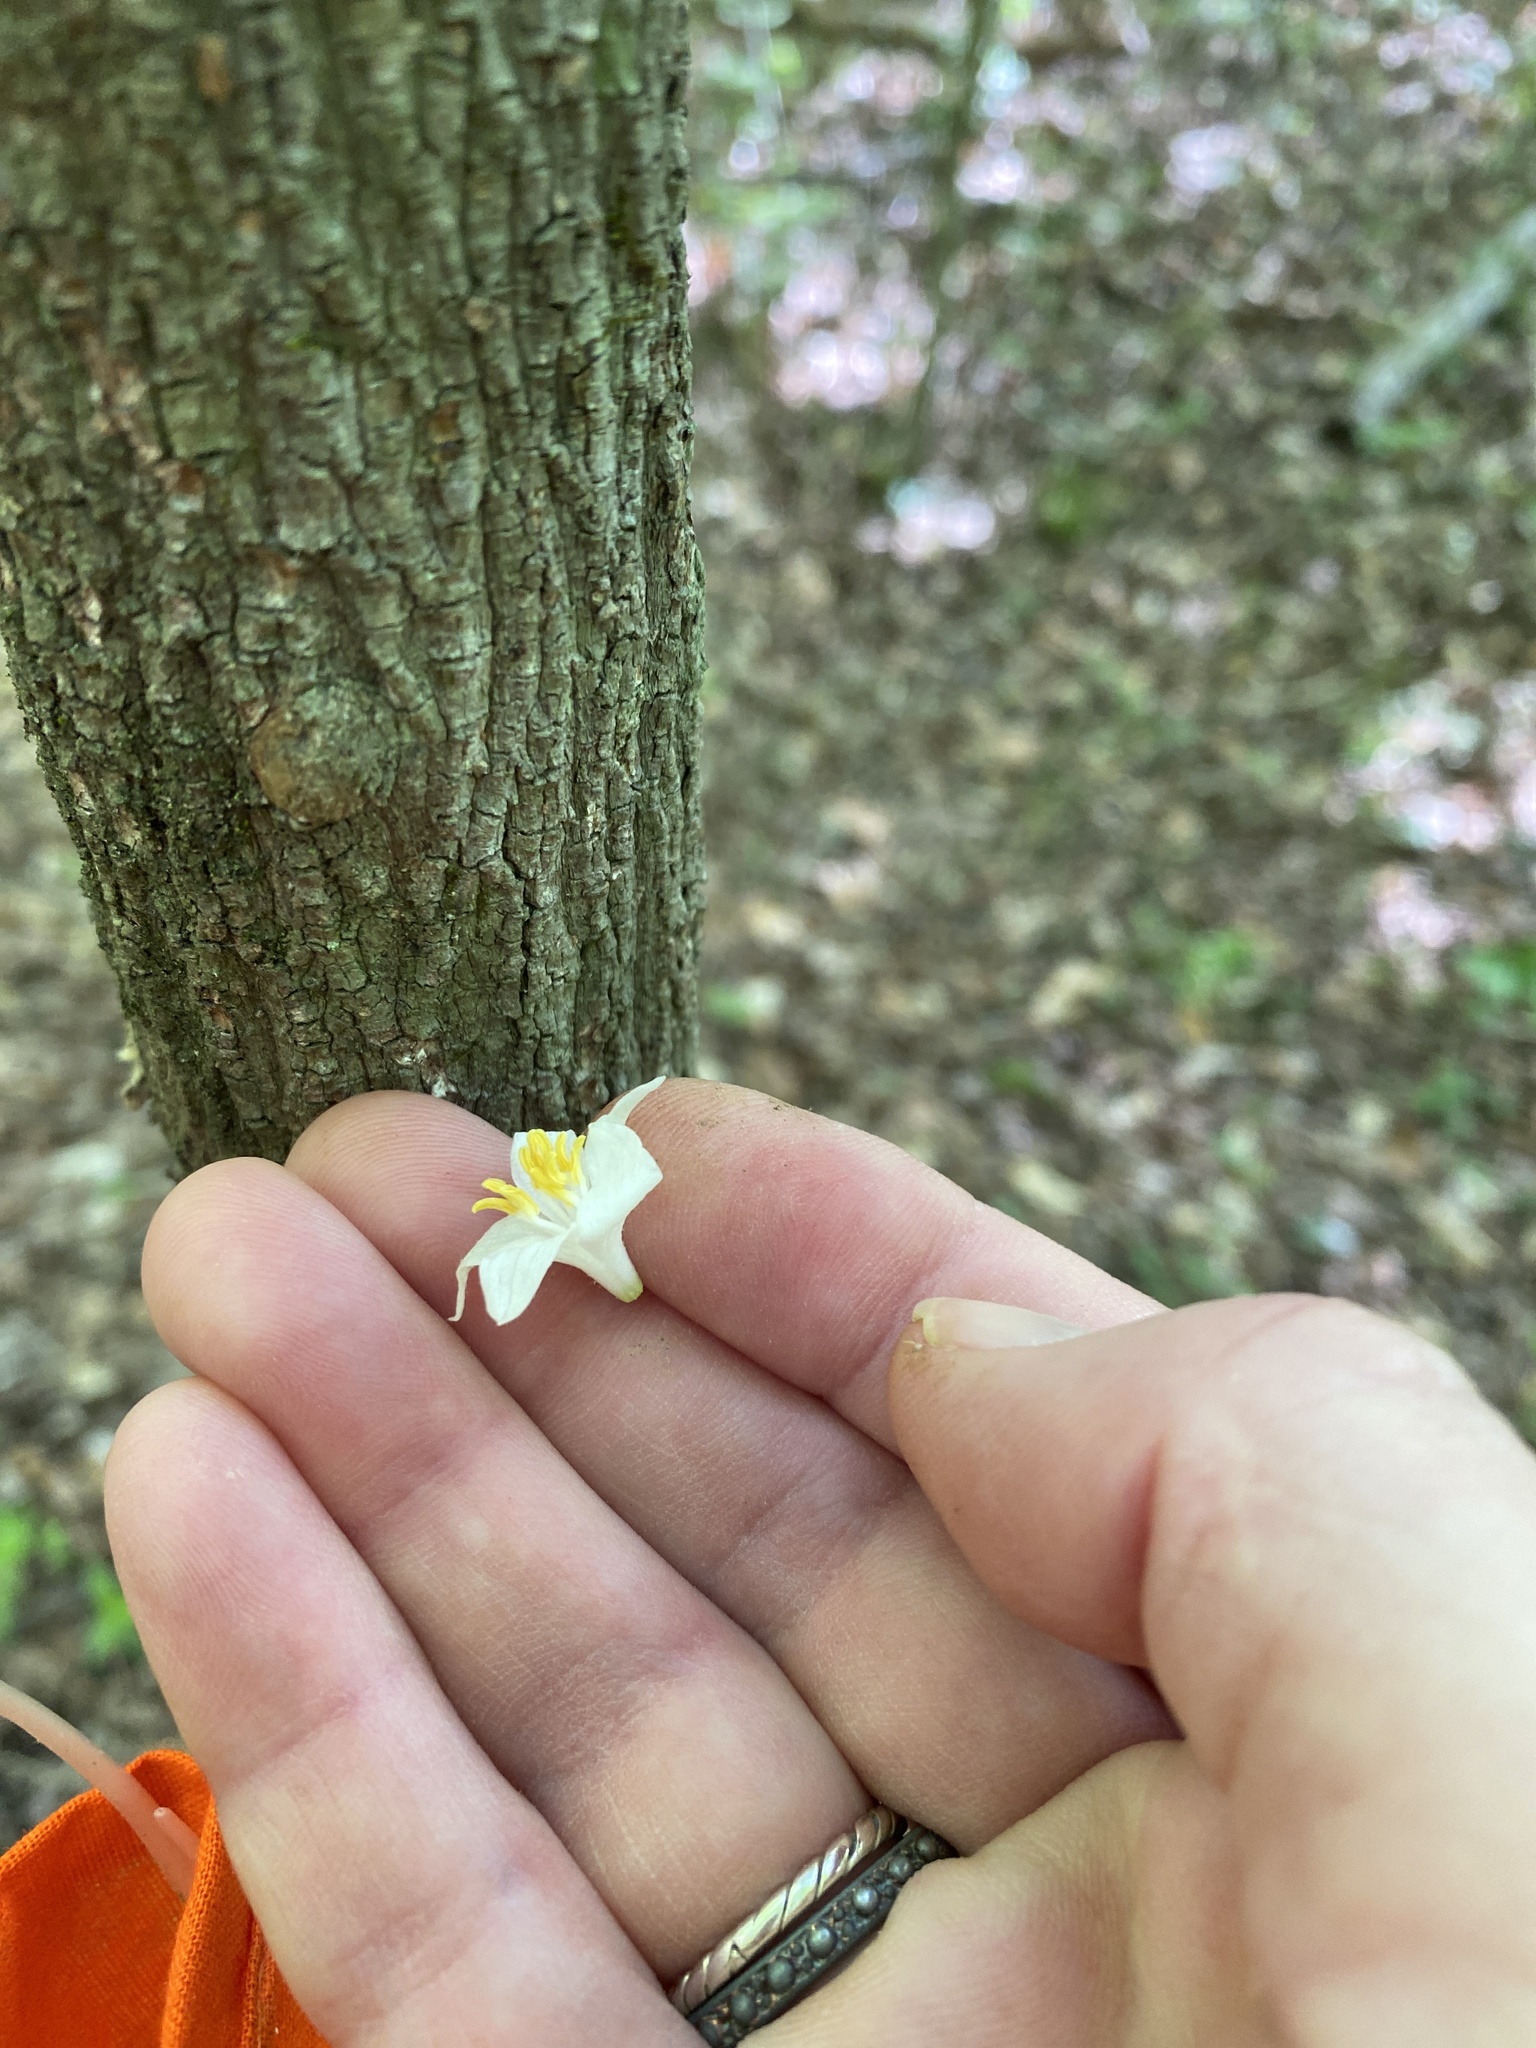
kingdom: Plantae
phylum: Tracheophyta
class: Magnoliopsida
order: Ericales
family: Styracaceae
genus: Styrax
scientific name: Styrax grandifolius
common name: Big-leaf snowbell
